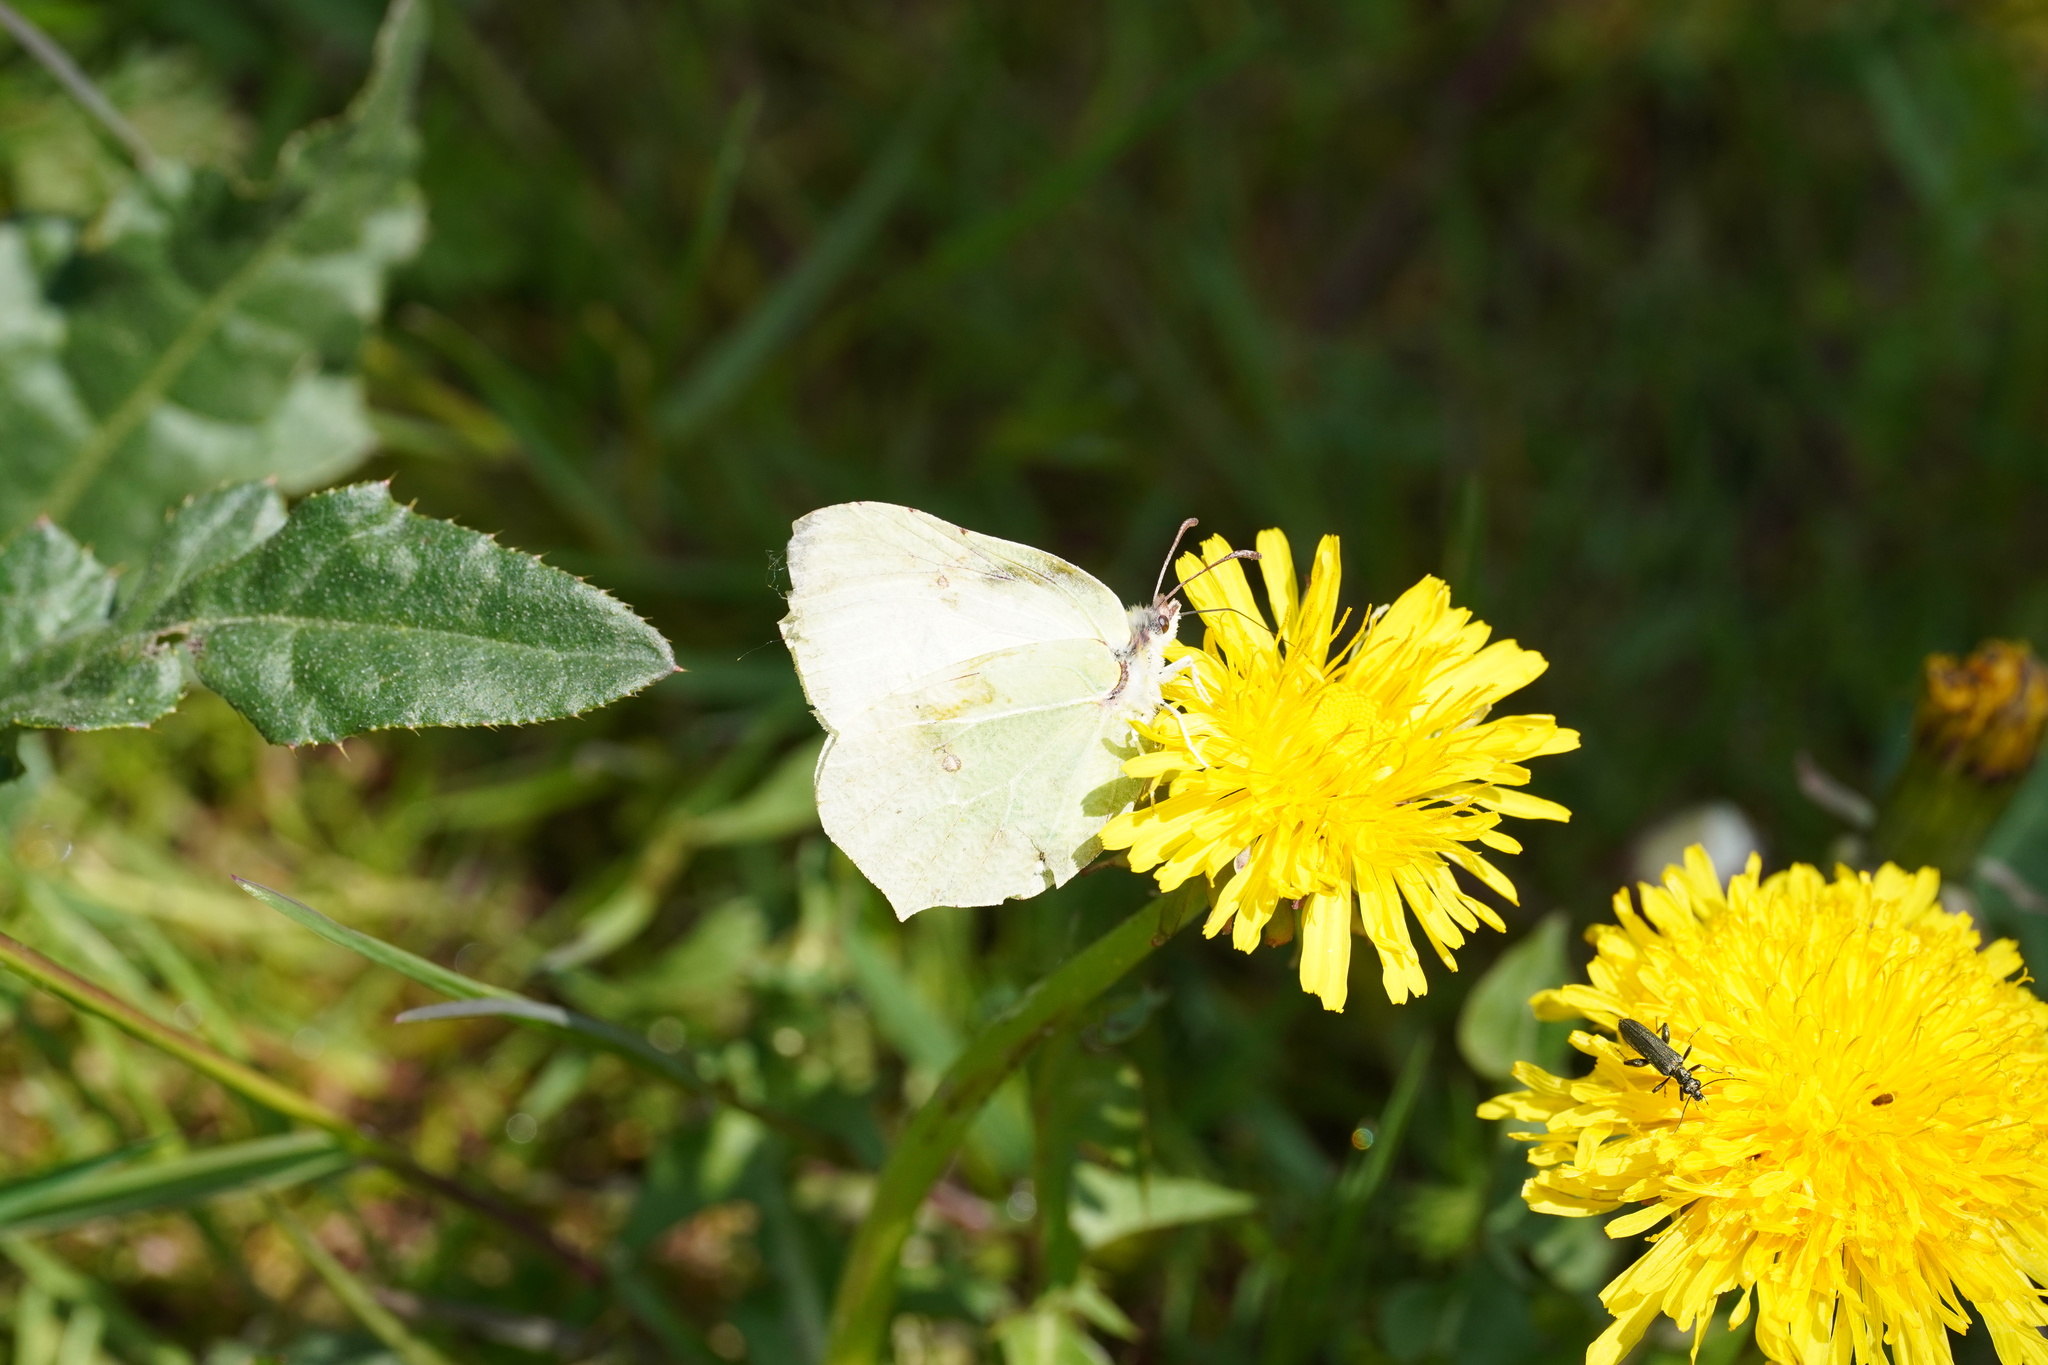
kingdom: Animalia
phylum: Arthropoda
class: Insecta
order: Lepidoptera
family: Pieridae
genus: Gonepteryx
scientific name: Gonepteryx rhamni
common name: Brimstone
